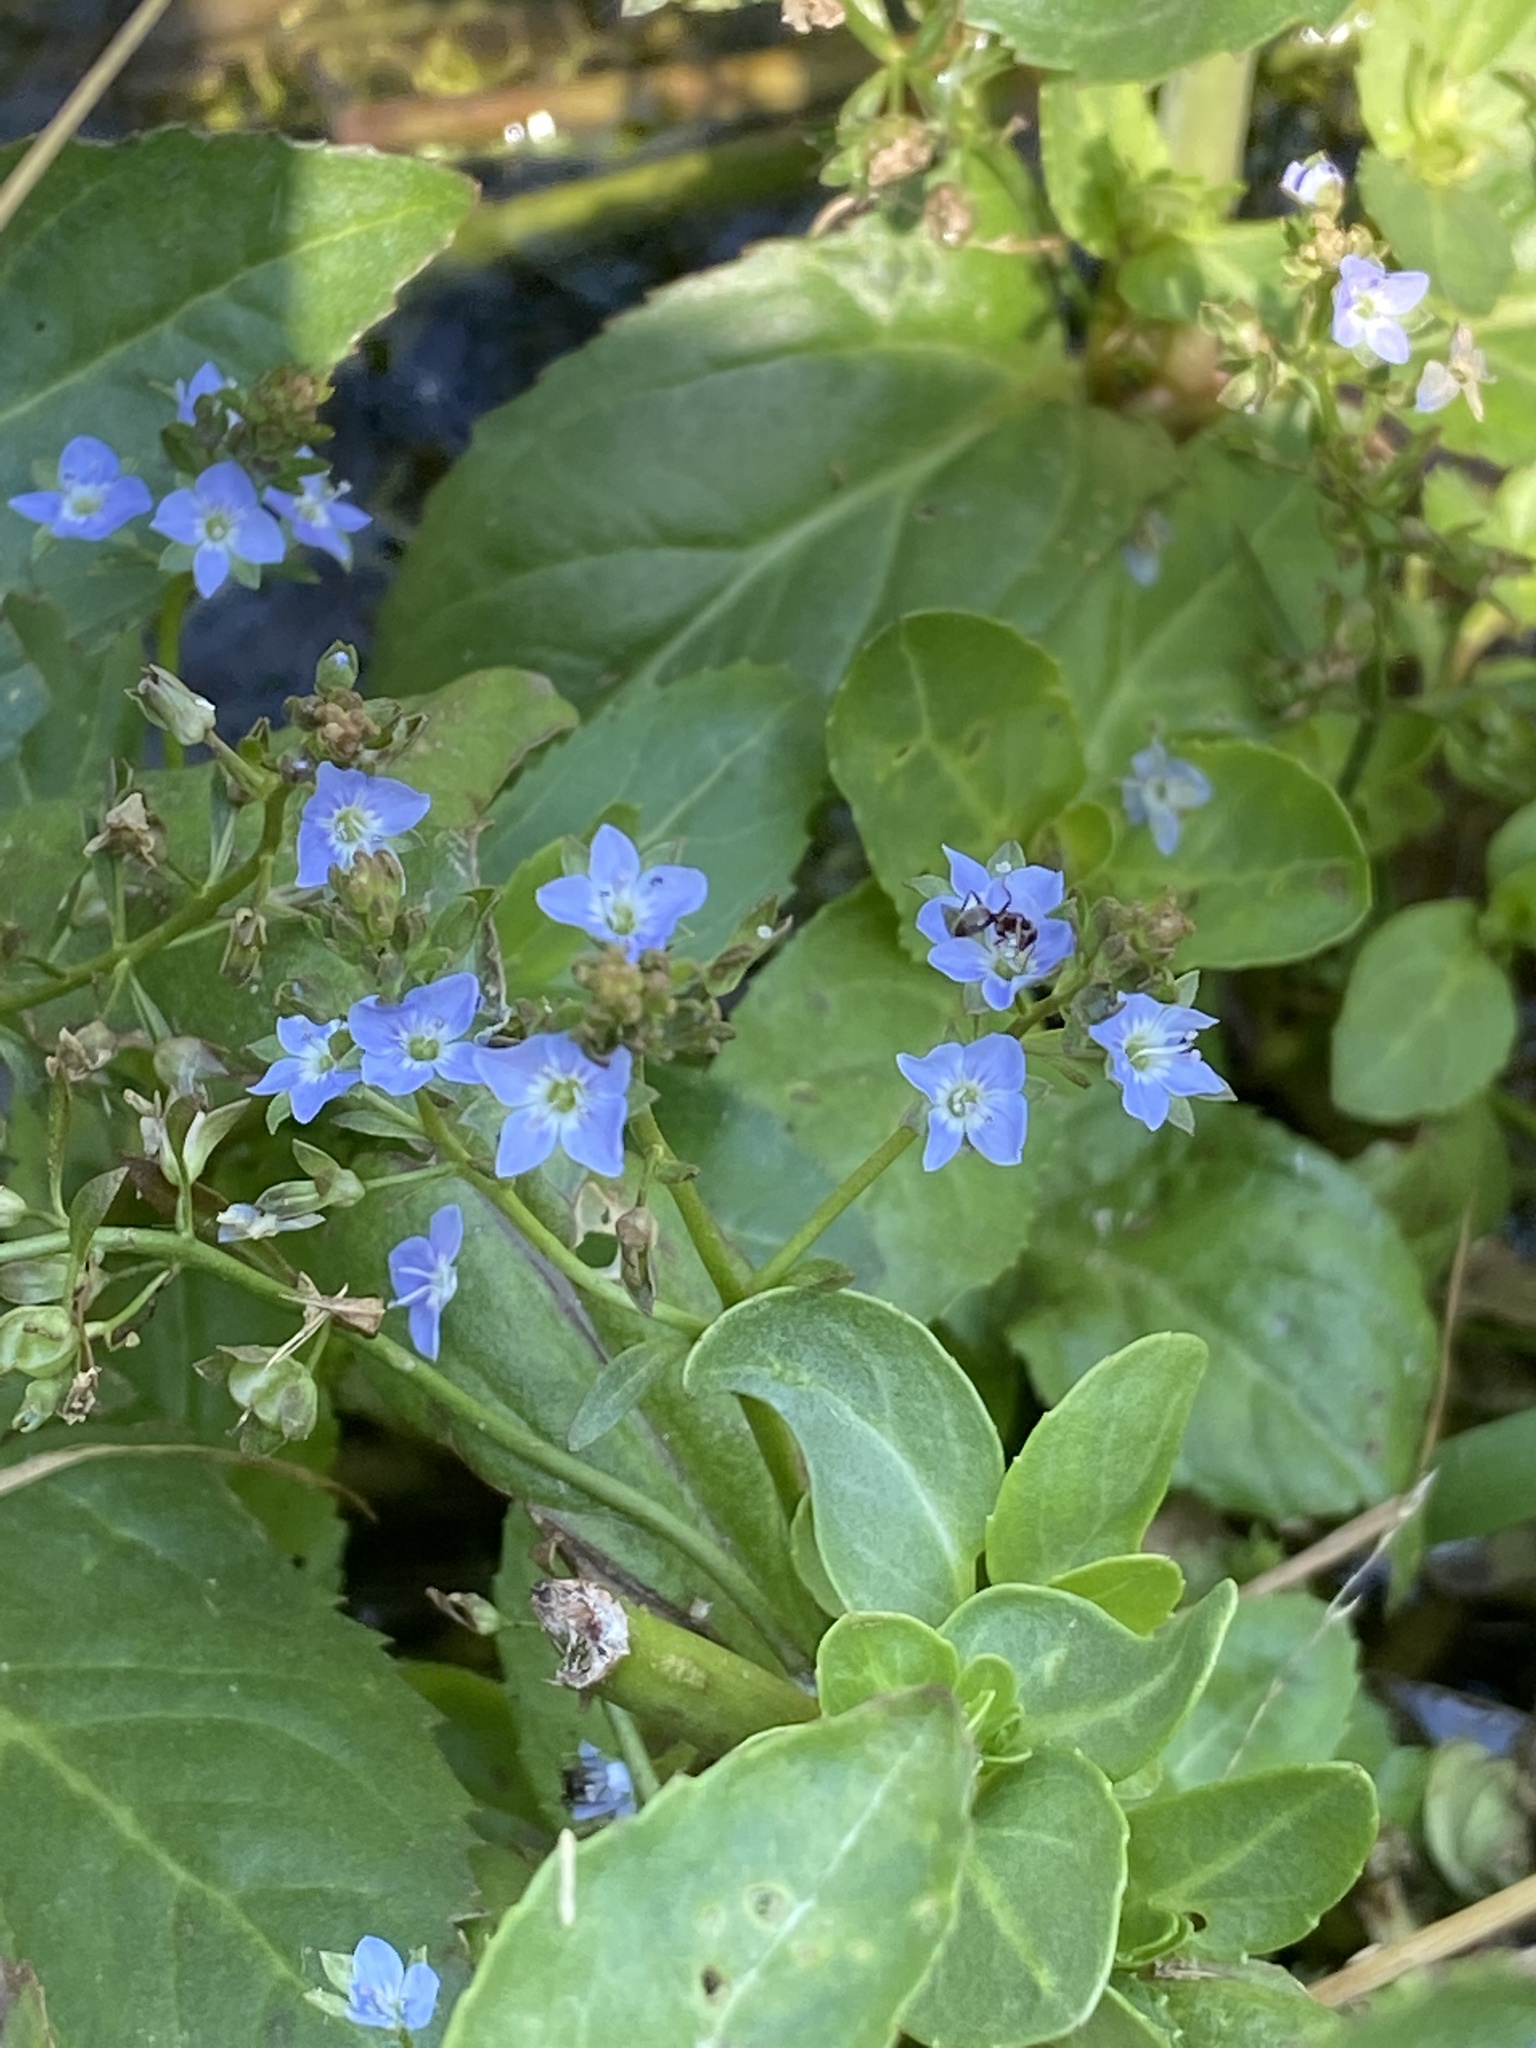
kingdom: Plantae
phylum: Tracheophyta
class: Magnoliopsida
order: Lamiales
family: Plantaginaceae
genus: Veronica
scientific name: Veronica beccabunga
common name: Brooklime
